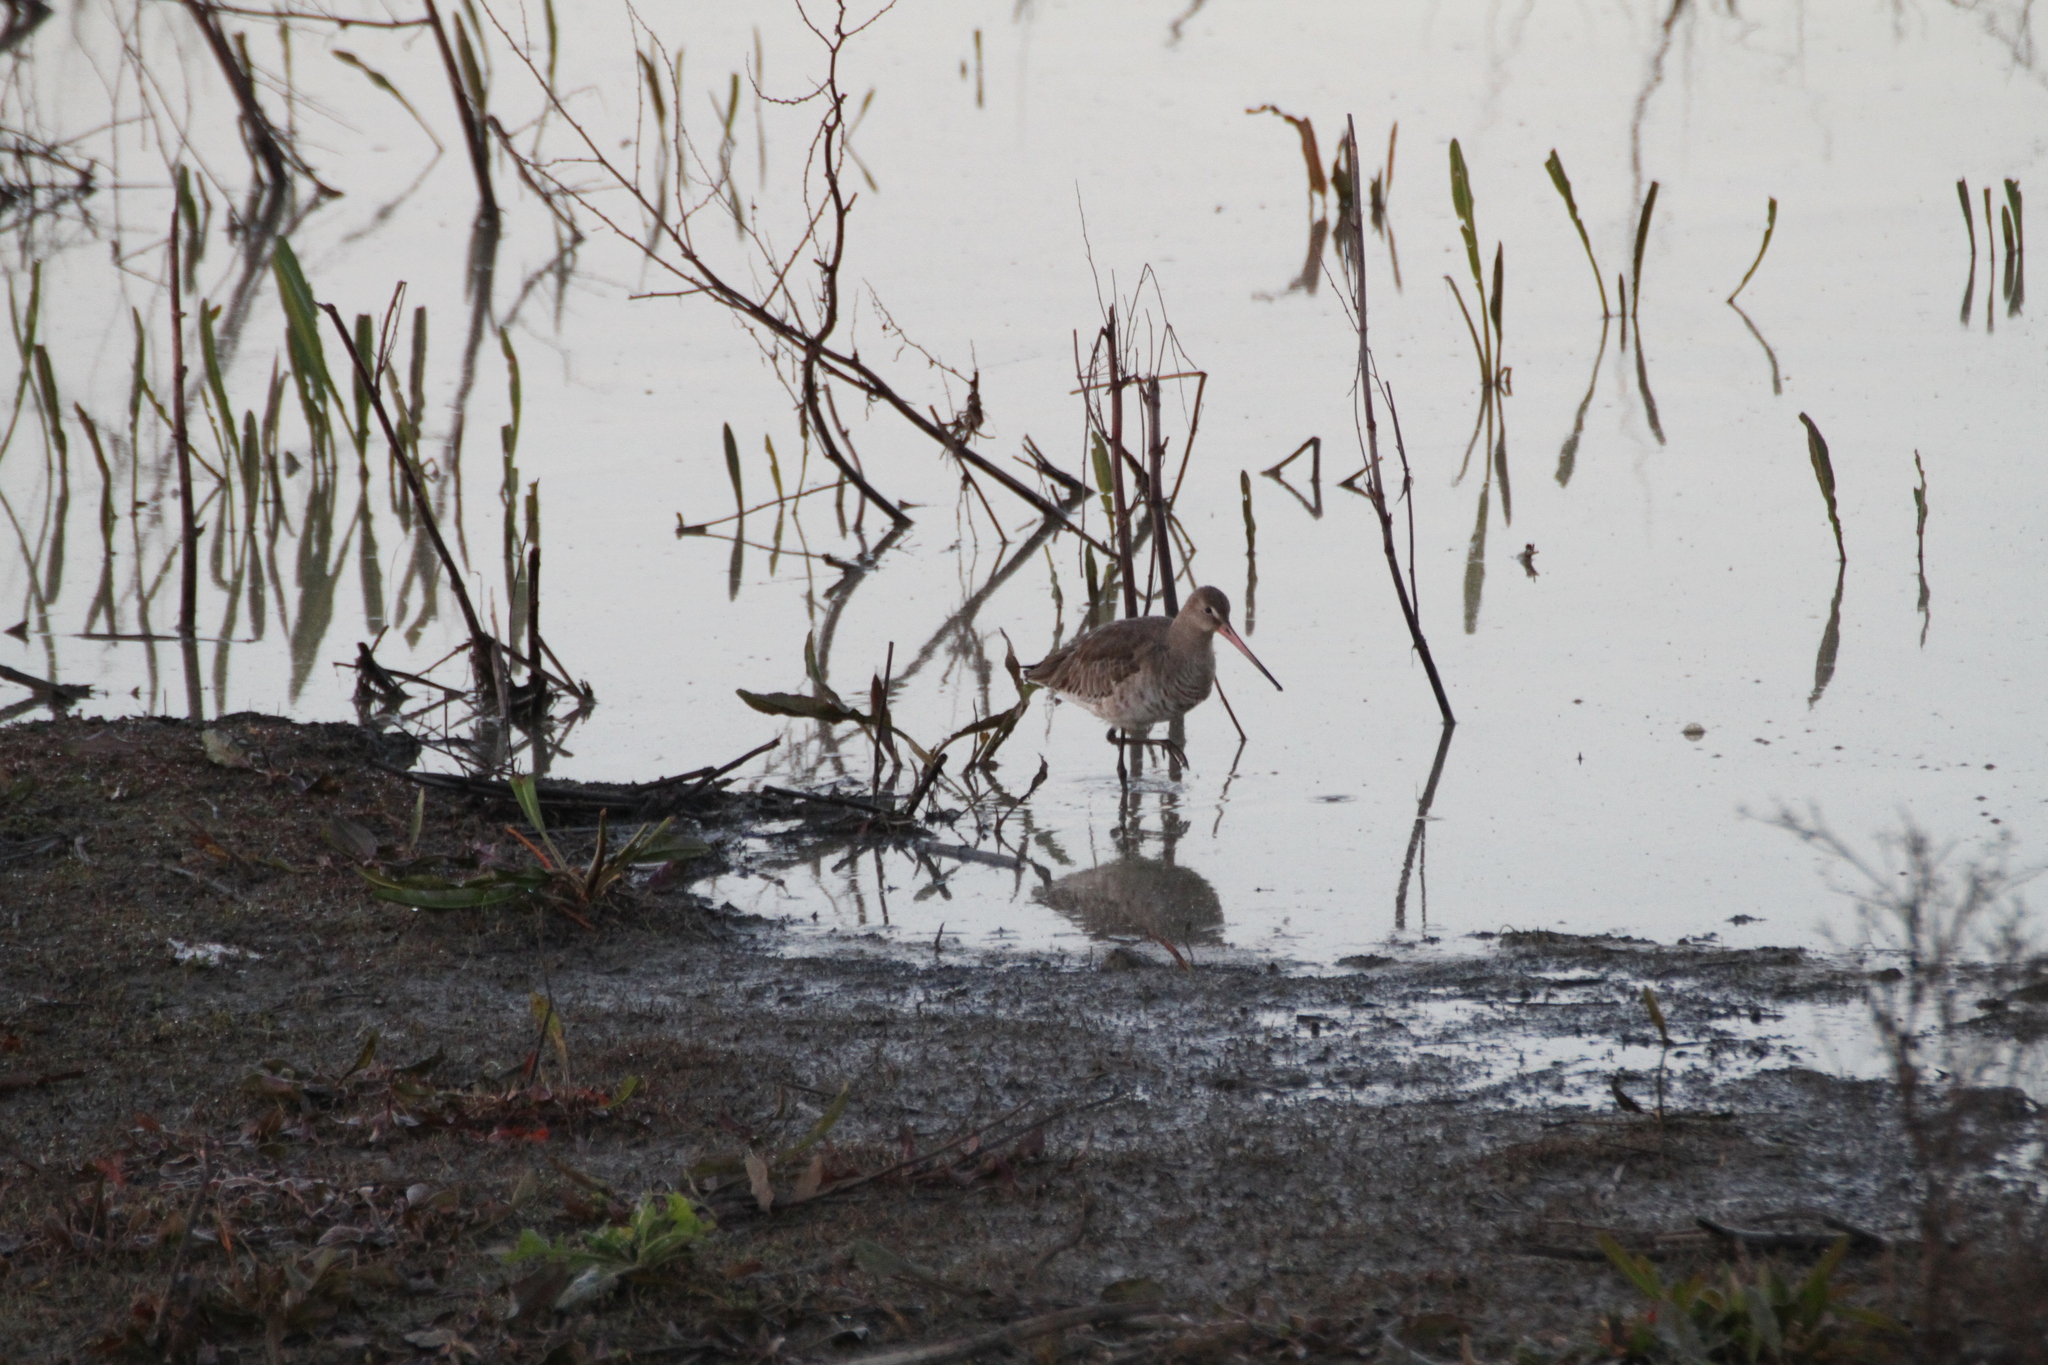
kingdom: Animalia
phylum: Chordata
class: Aves
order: Charadriiformes
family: Scolopacidae
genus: Limosa
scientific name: Limosa limosa
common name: Black-tailed godwit
